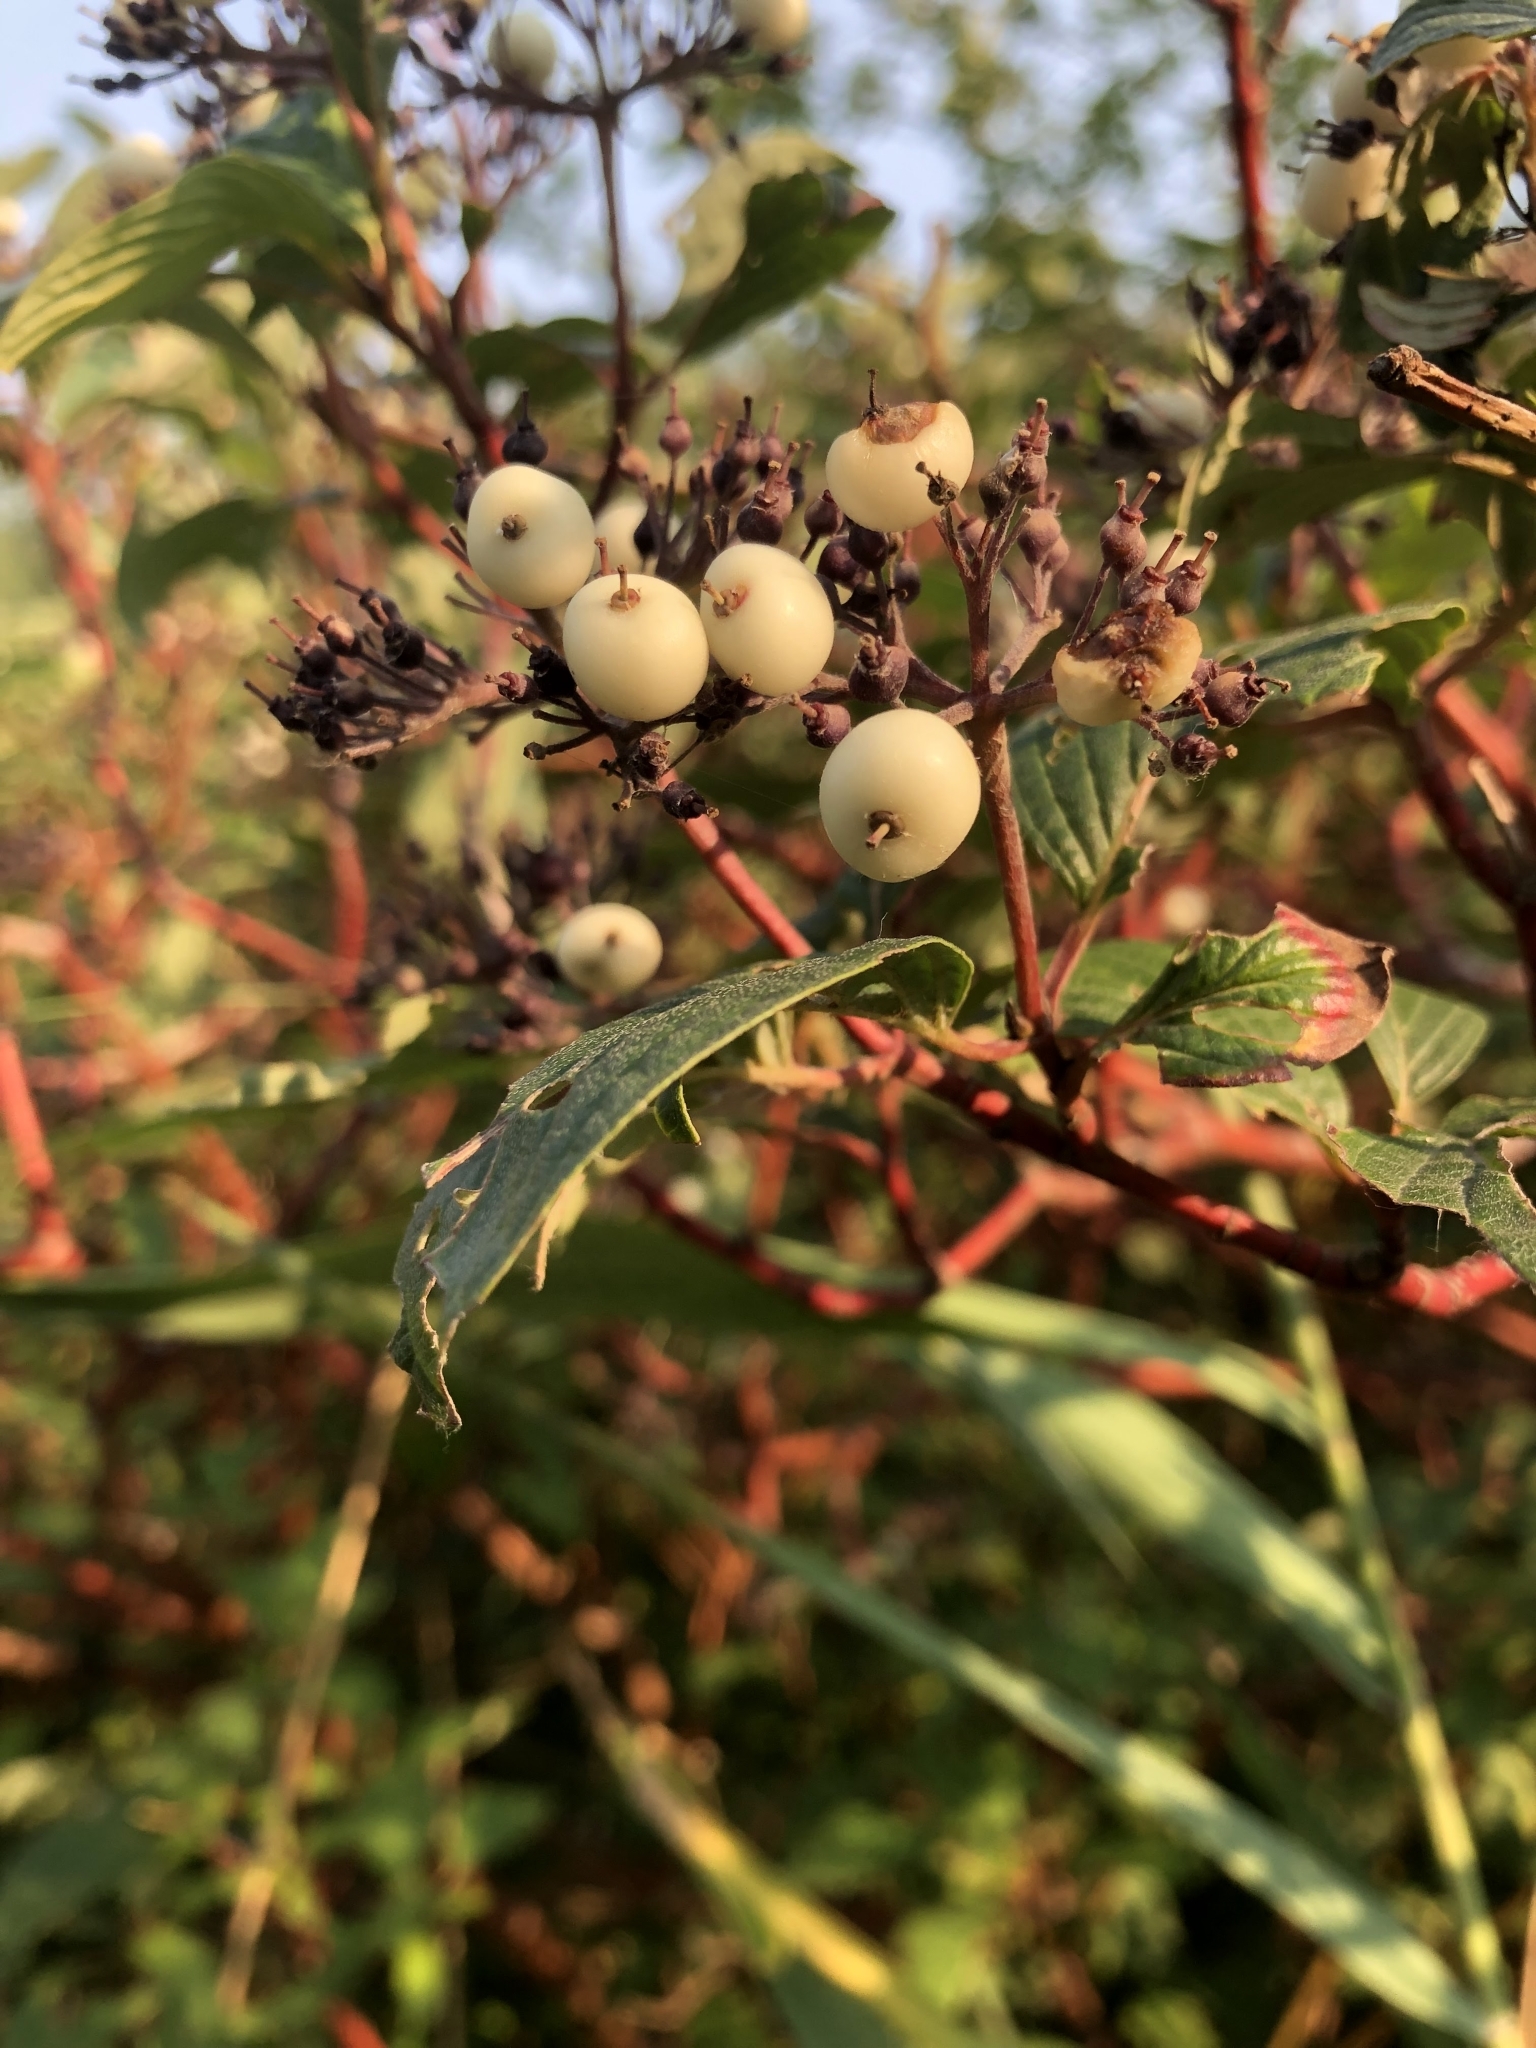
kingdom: Plantae
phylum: Tracheophyta
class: Magnoliopsida
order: Cornales
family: Cornaceae
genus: Cornus
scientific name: Cornus sericea
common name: Red-osier dogwood
